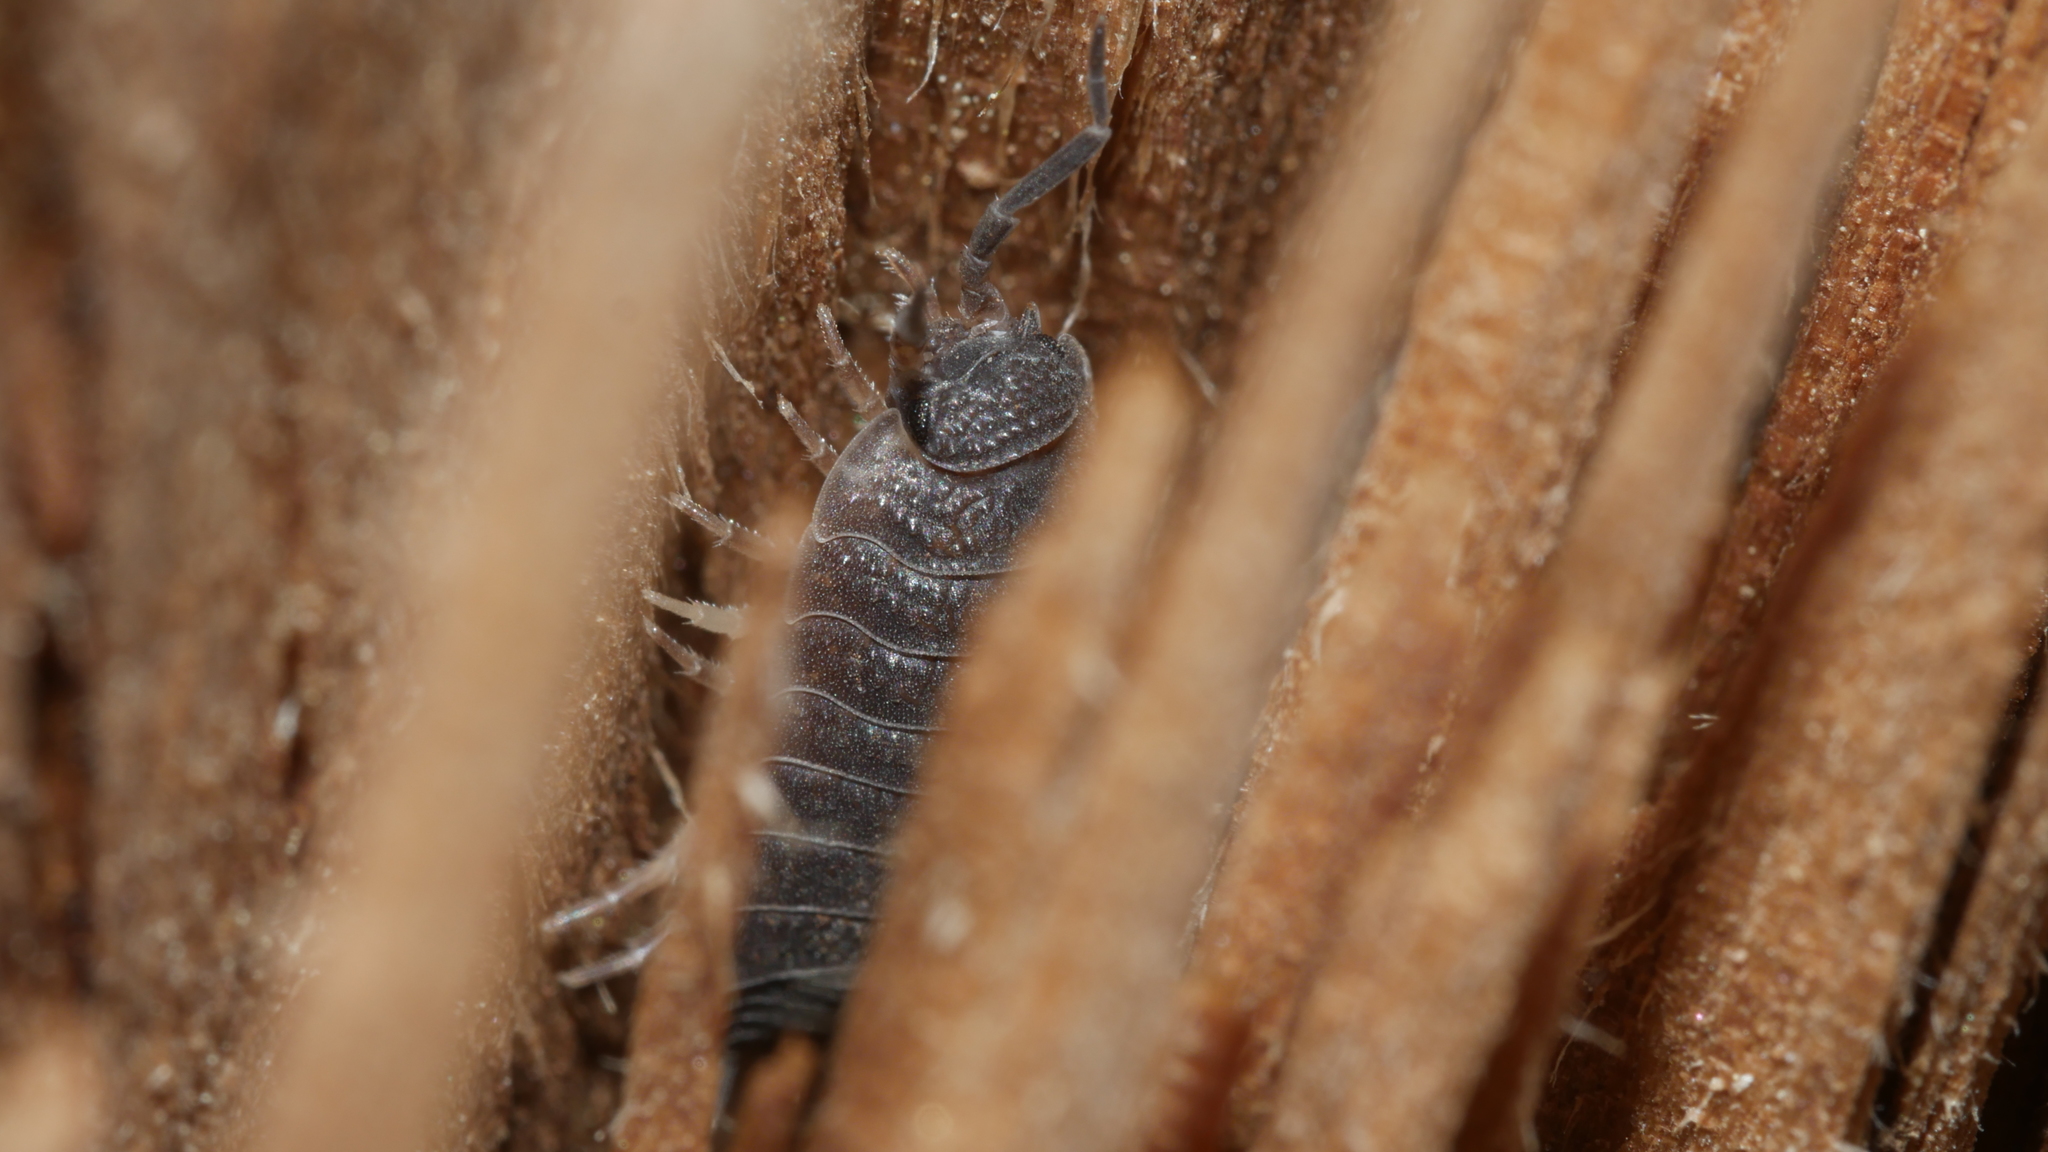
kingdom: Animalia
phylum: Arthropoda
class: Malacostraca
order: Isopoda
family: Porcellionidae
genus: Porcellio
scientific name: Porcellio scaber
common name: Common rough woodlouse
